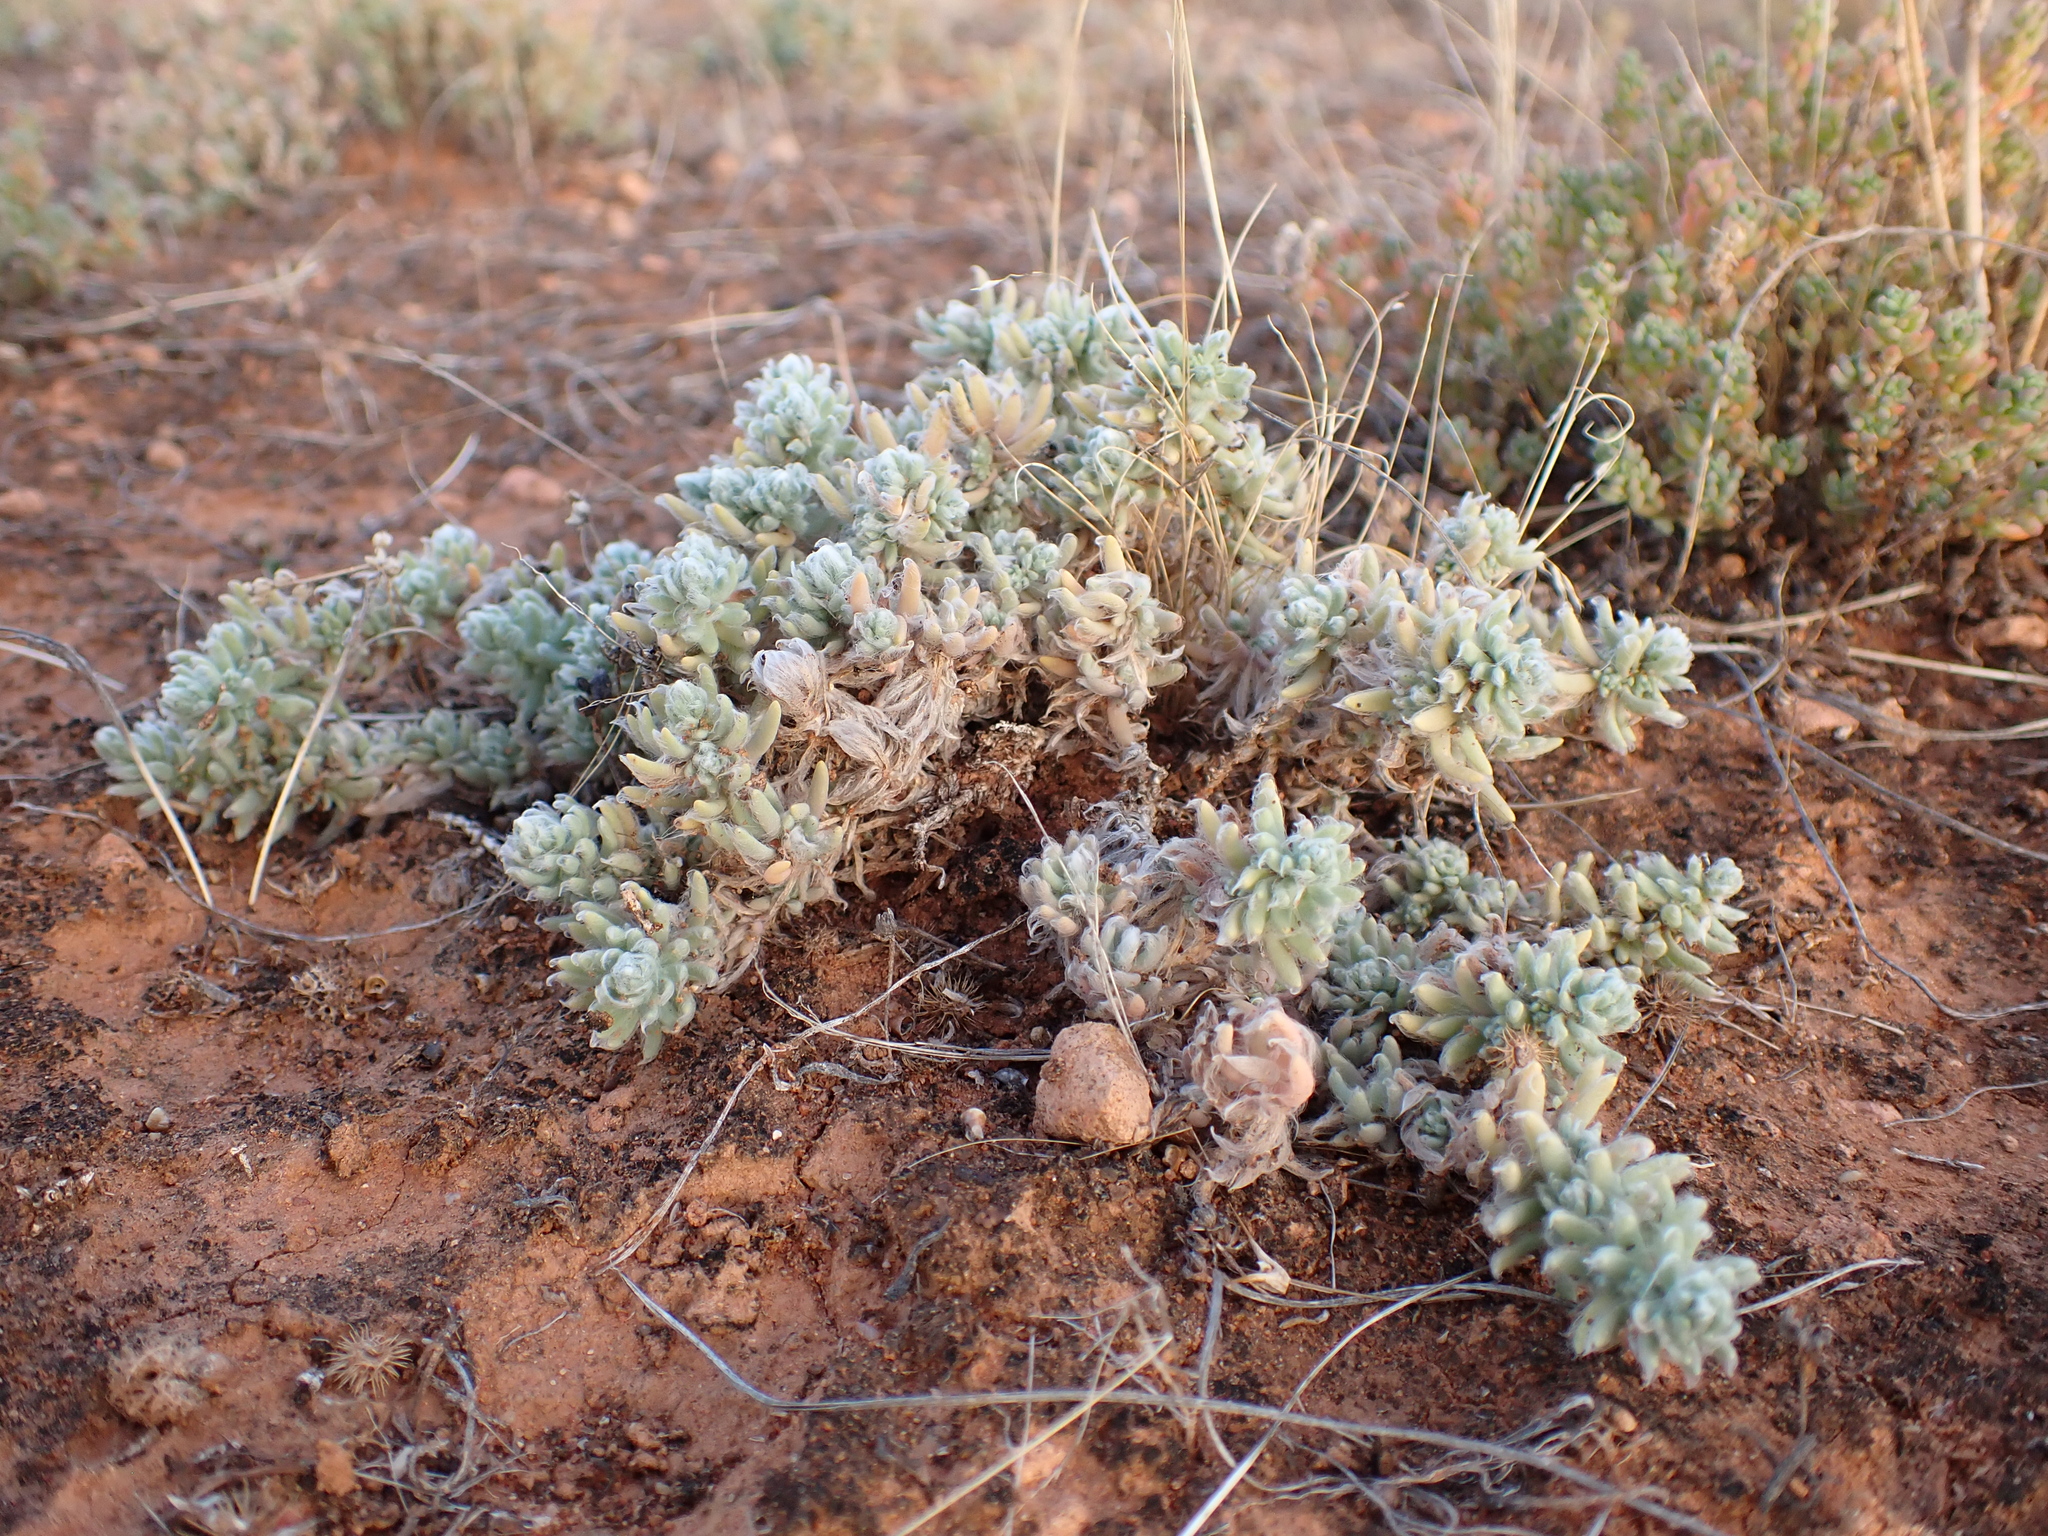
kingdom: Plantae
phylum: Tracheophyta
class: Magnoliopsida
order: Caryophyllales
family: Amaranthaceae
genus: Sclerolaena
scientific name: Sclerolaena brachyptera
